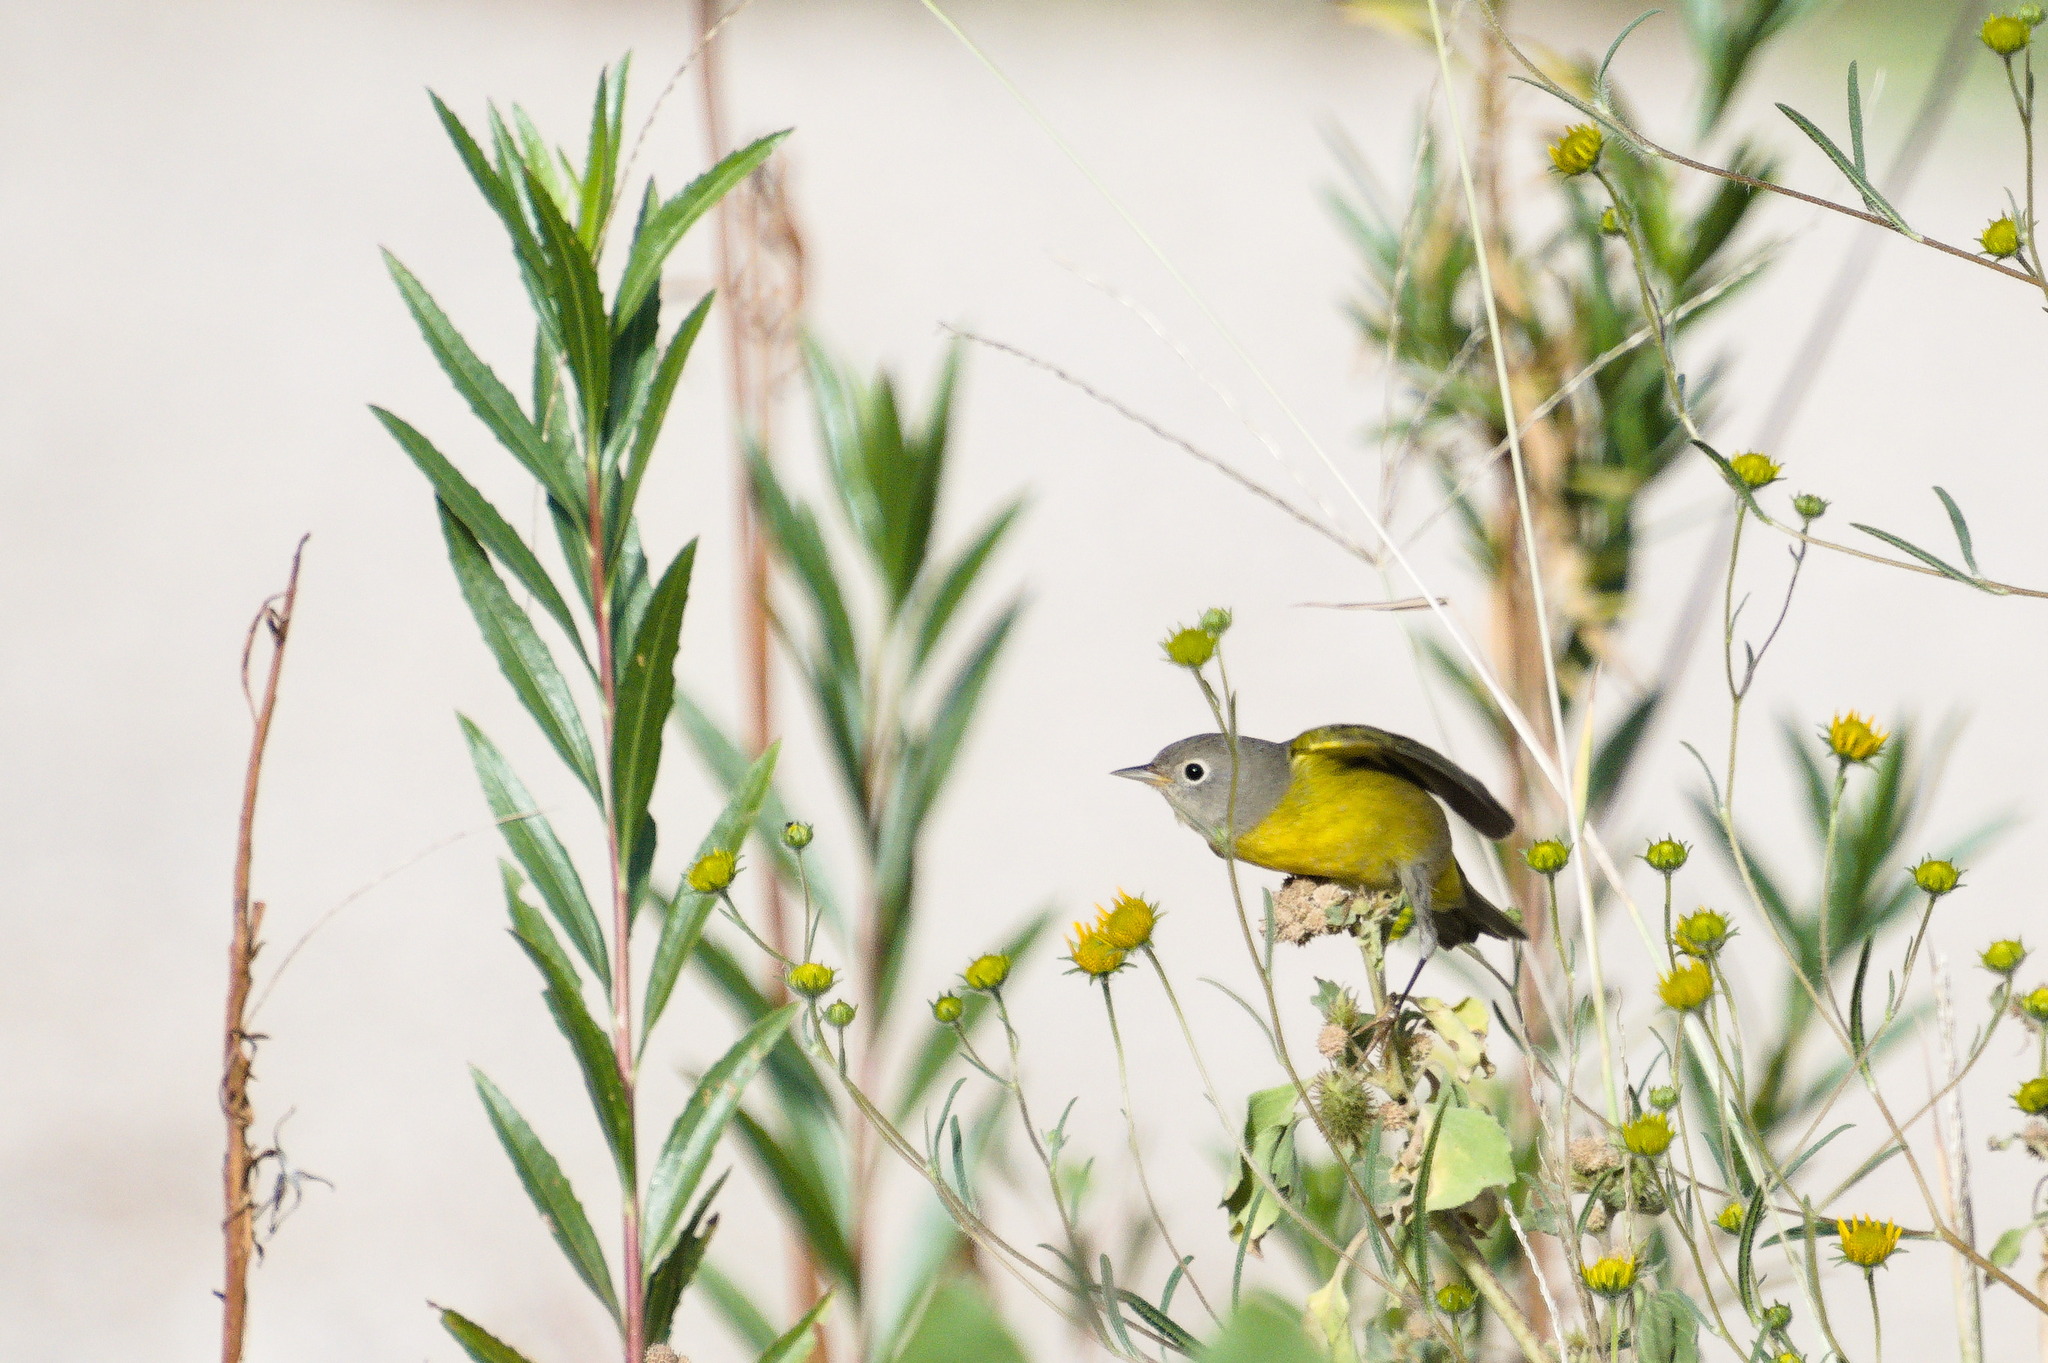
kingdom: Animalia
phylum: Chordata
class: Aves
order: Passeriformes
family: Parulidae
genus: Leiothlypis
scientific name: Leiothlypis ruficapilla
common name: Nashville warbler
